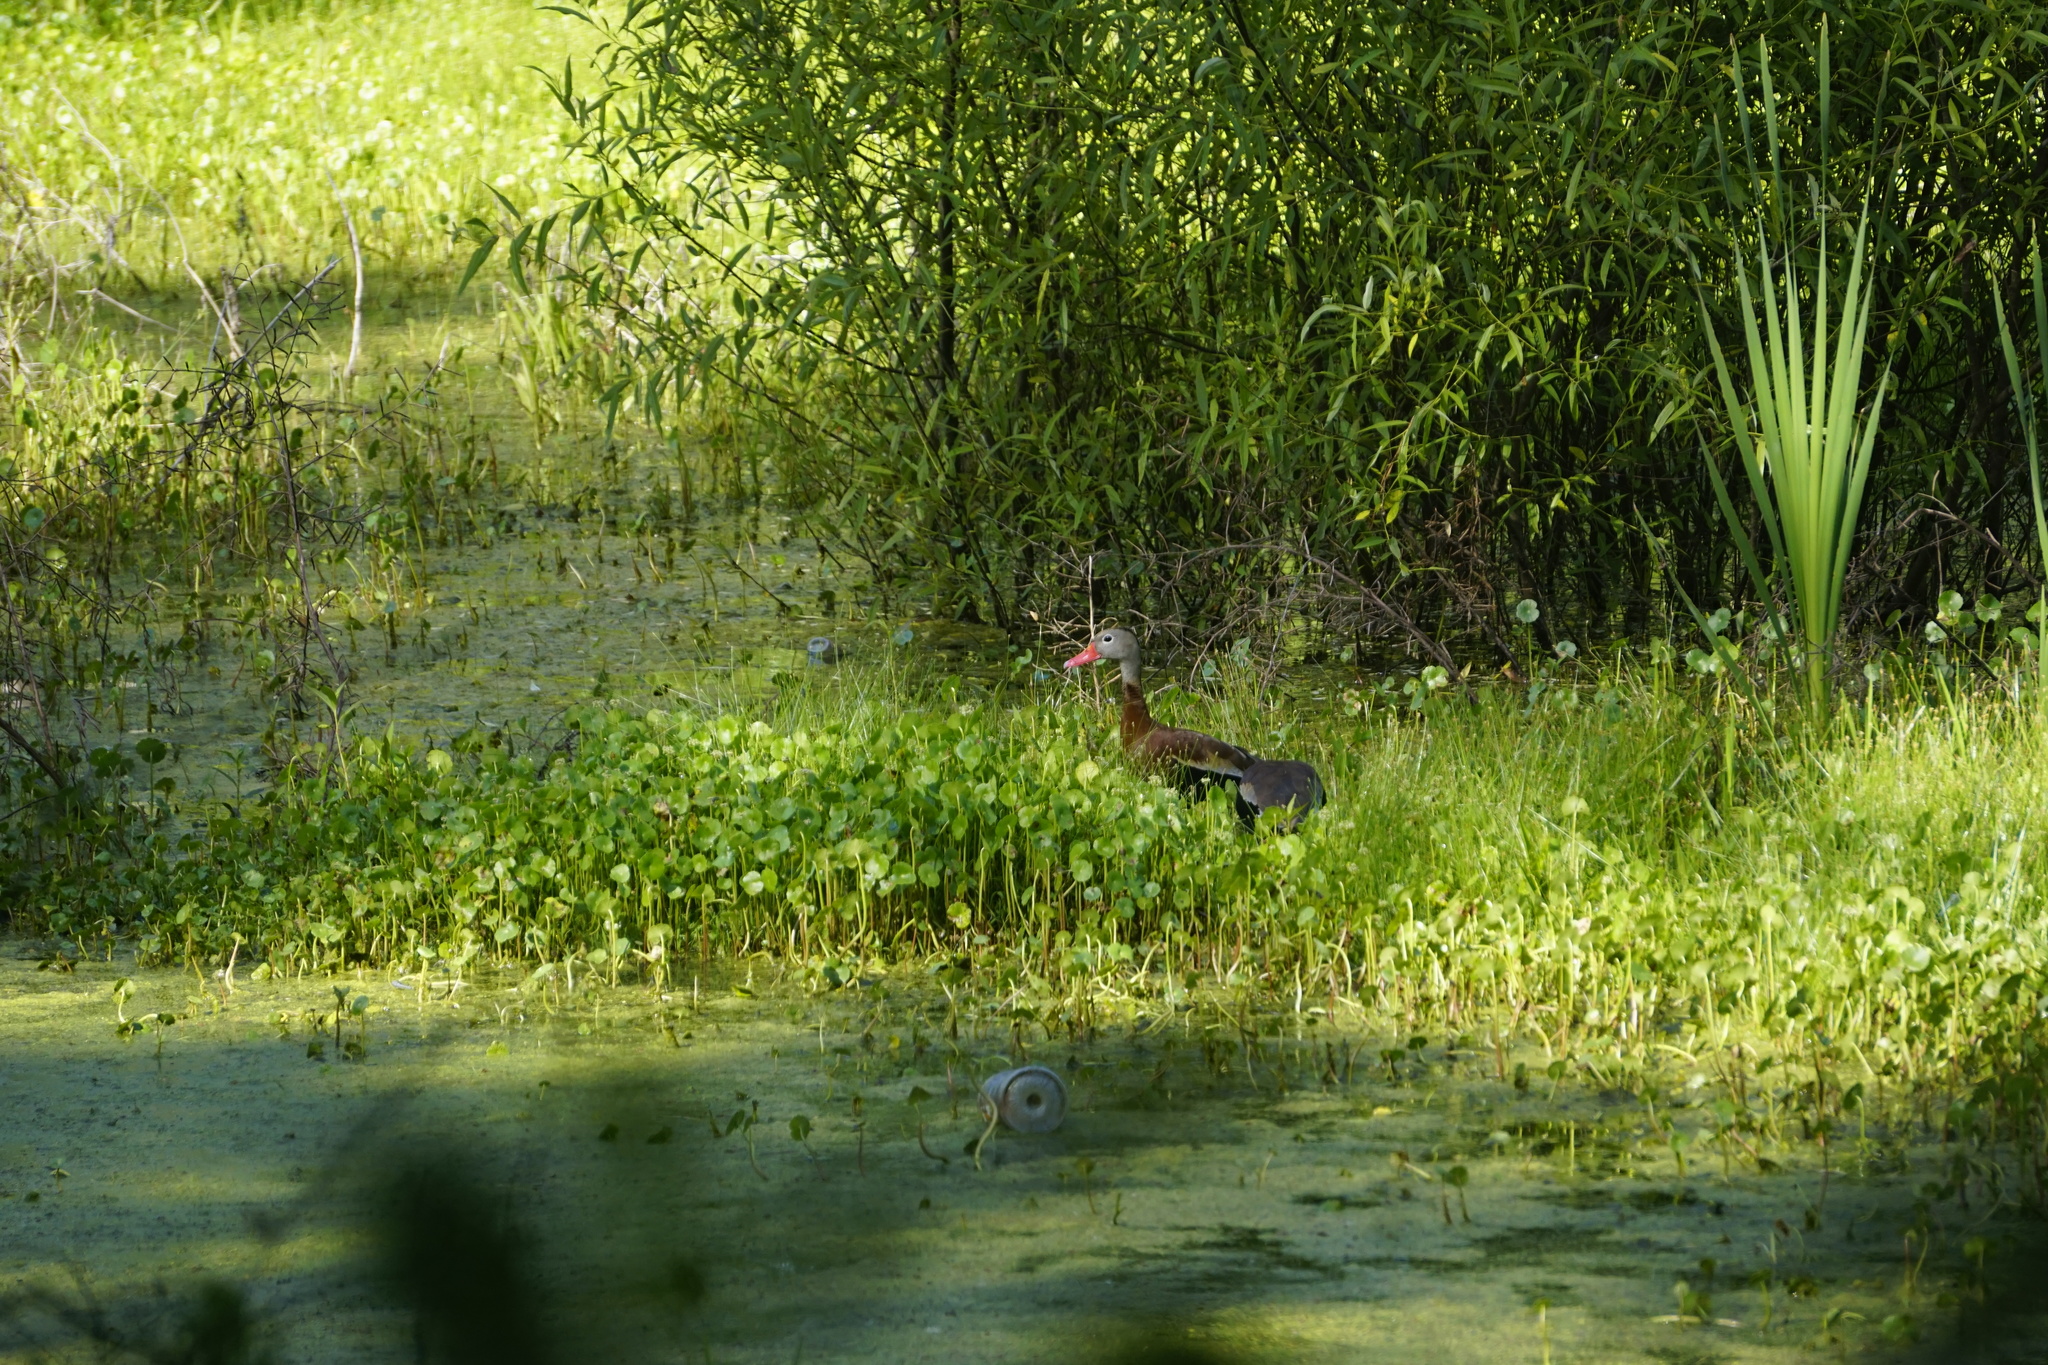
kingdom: Animalia
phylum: Chordata
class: Aves
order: Anseriformes
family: Anatidae
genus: Dendrocygna
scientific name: Dendrocygna autumnalis
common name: Black-bellied whistling duck
